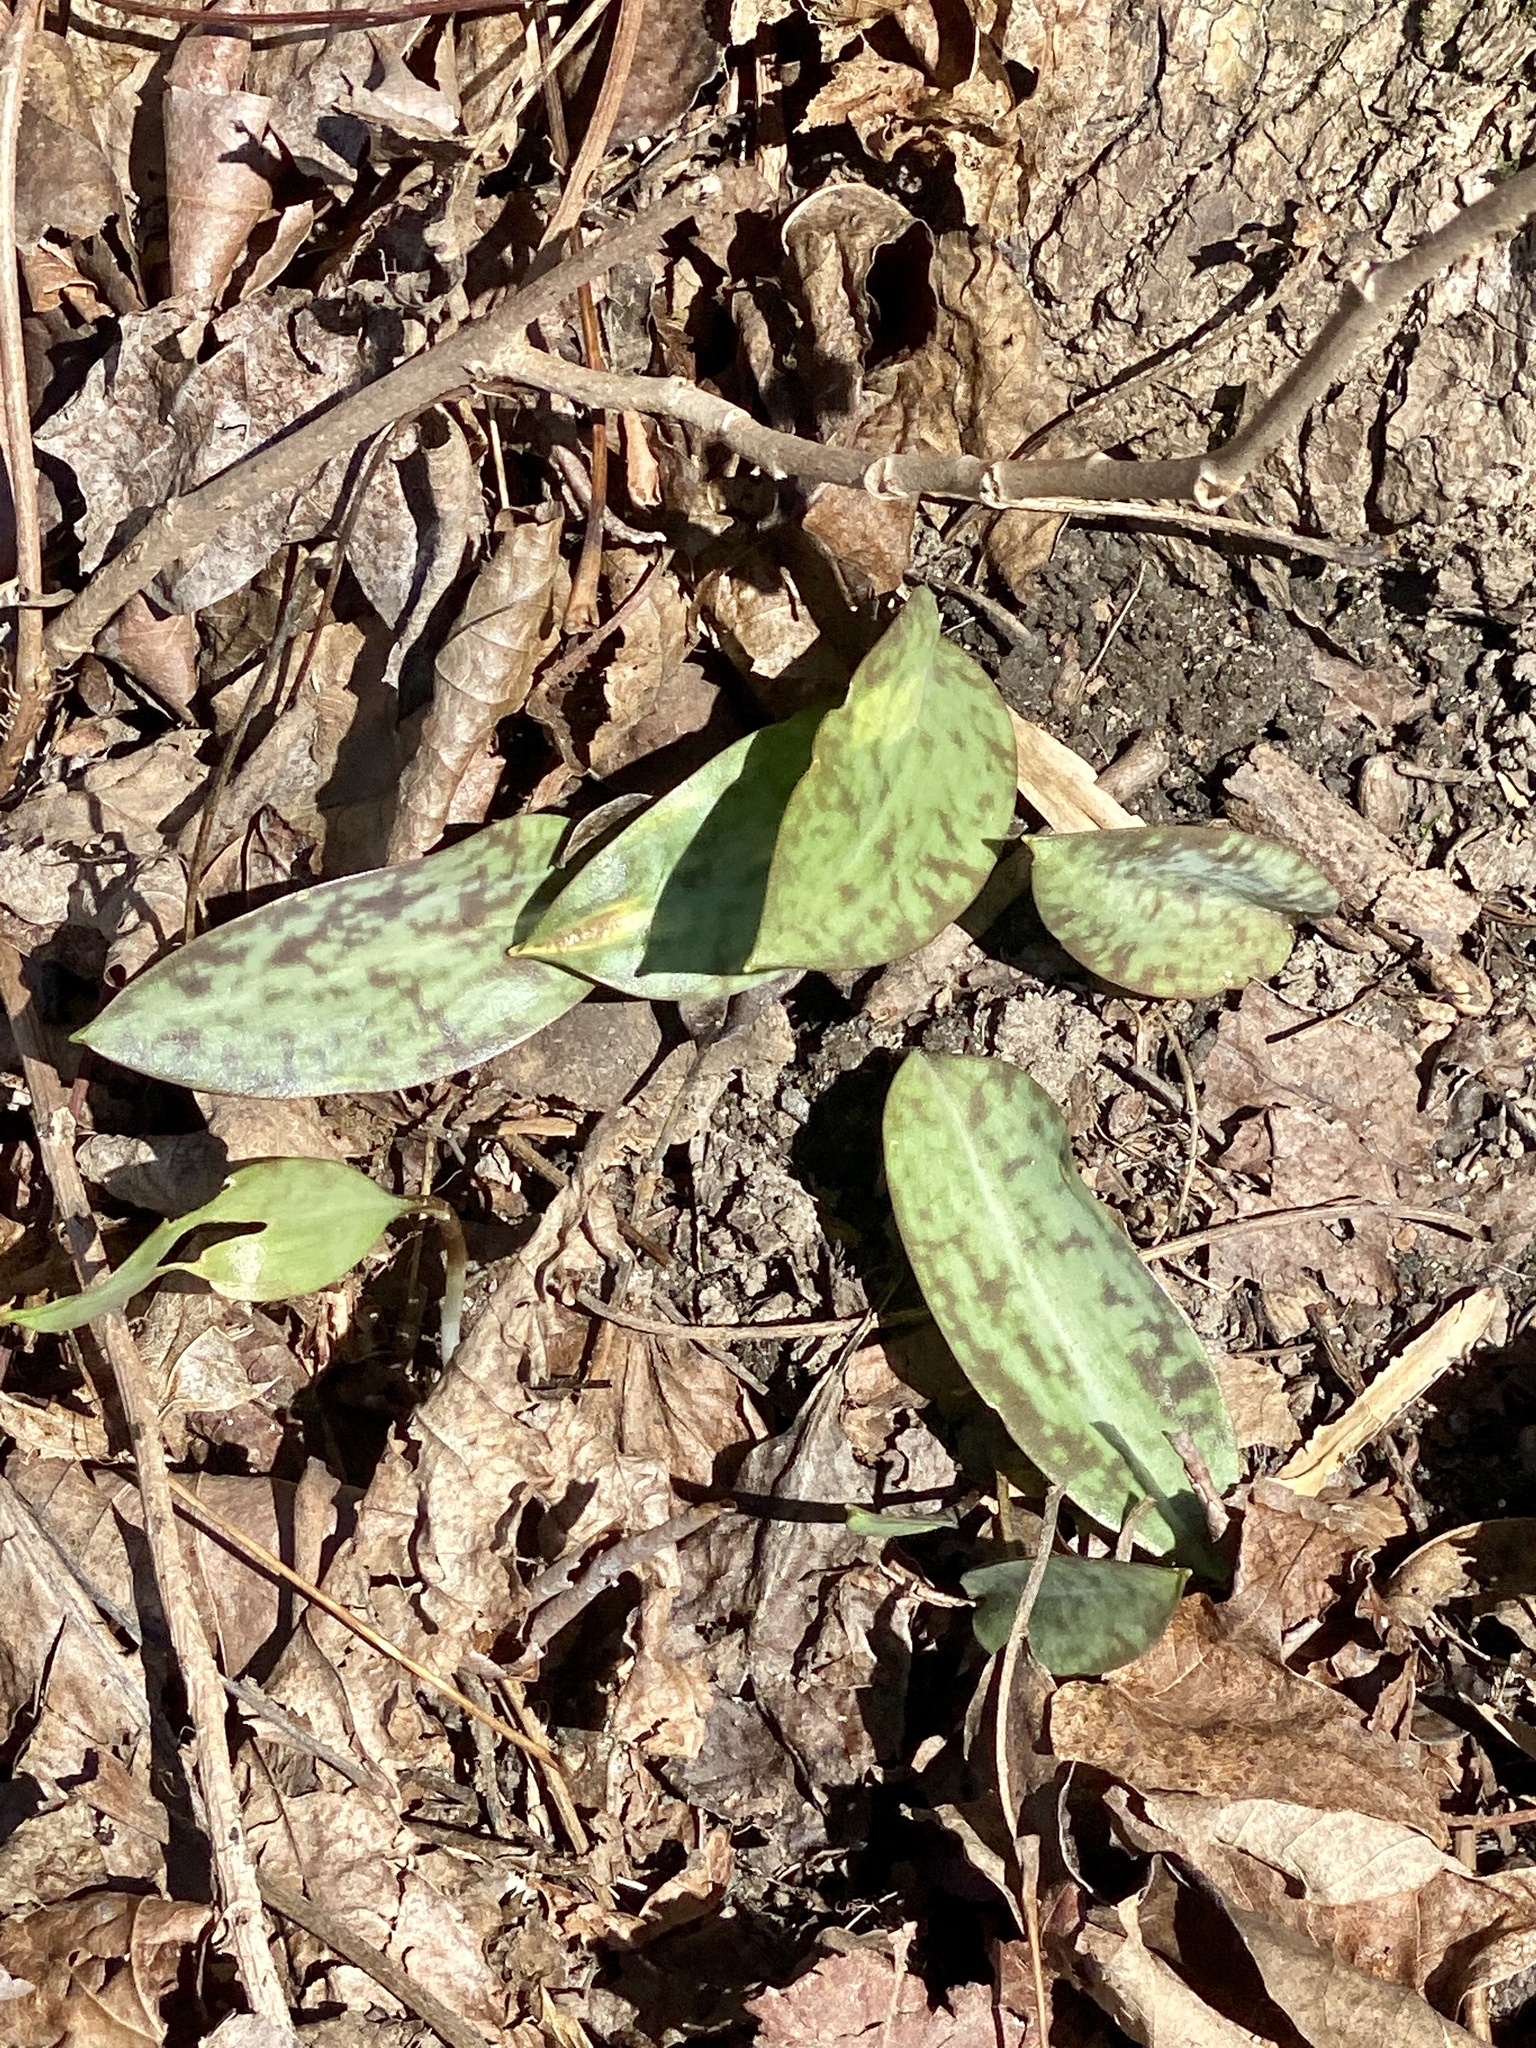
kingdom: Plantae
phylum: Tracheophyta
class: Liliopsida
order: Liliales
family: Liliaceae
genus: Erythronium
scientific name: Erythronium americanum
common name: Yellow adder's-tongue
